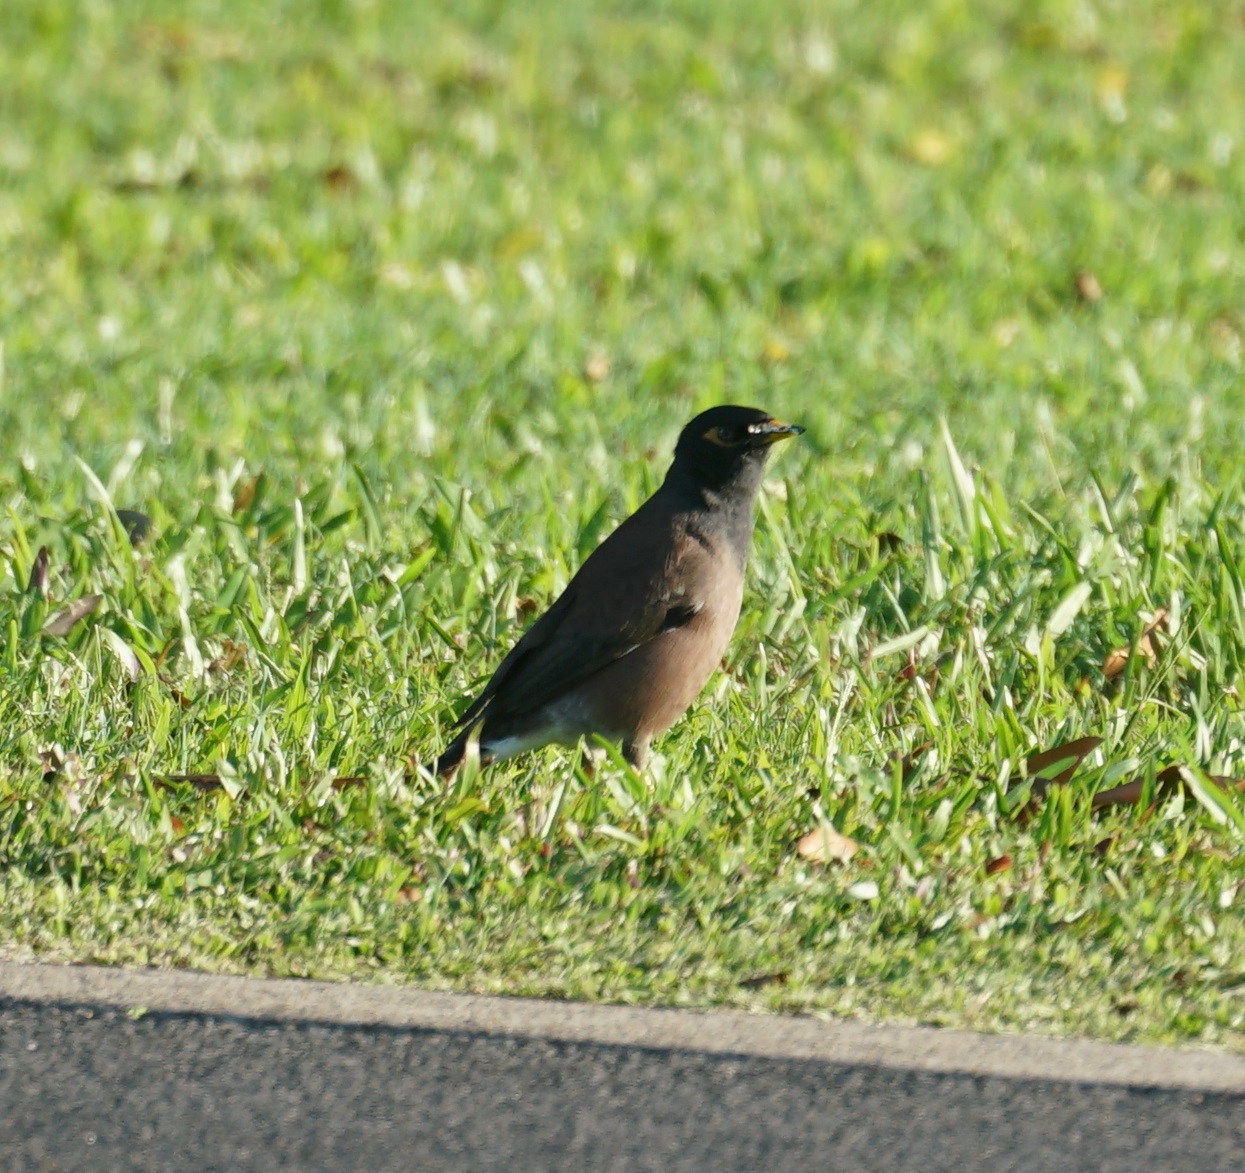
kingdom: Animalia
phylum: Chordata
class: Aves
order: Passeriformes
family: Sturnidae
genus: Acridotheres
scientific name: Acridotheres tristis
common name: Common myna
